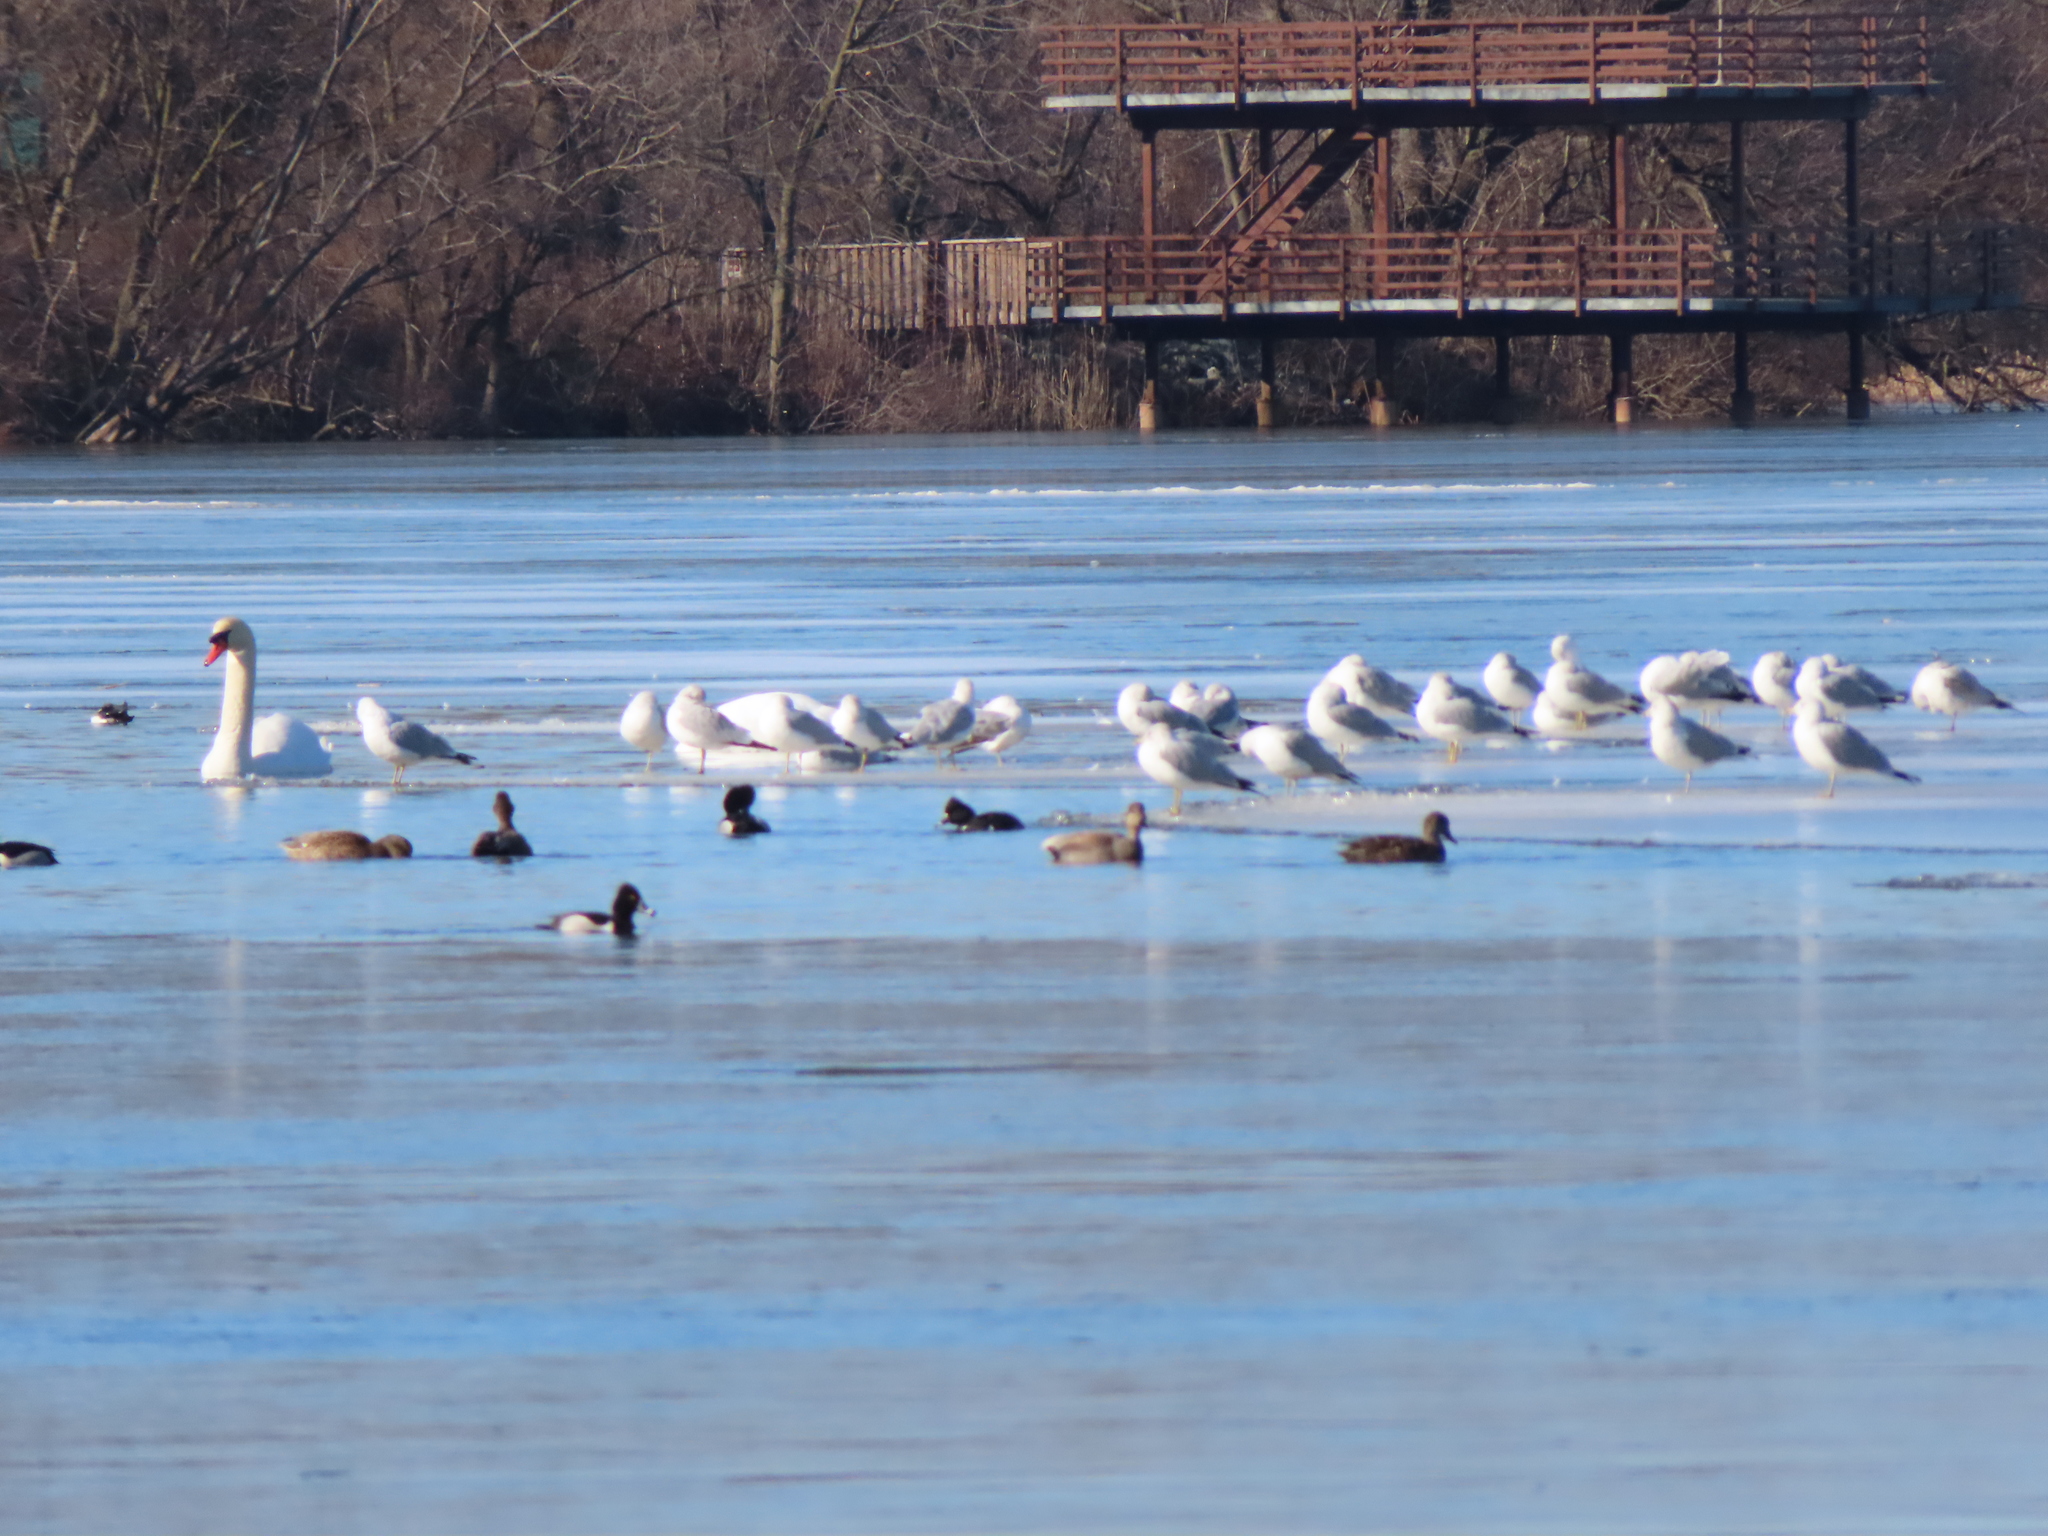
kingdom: Animalia
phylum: Chordata
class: Aves
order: Charadriiformes
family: Laridae
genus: Larus
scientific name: Larus delawarensis
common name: Ring-billed gull
